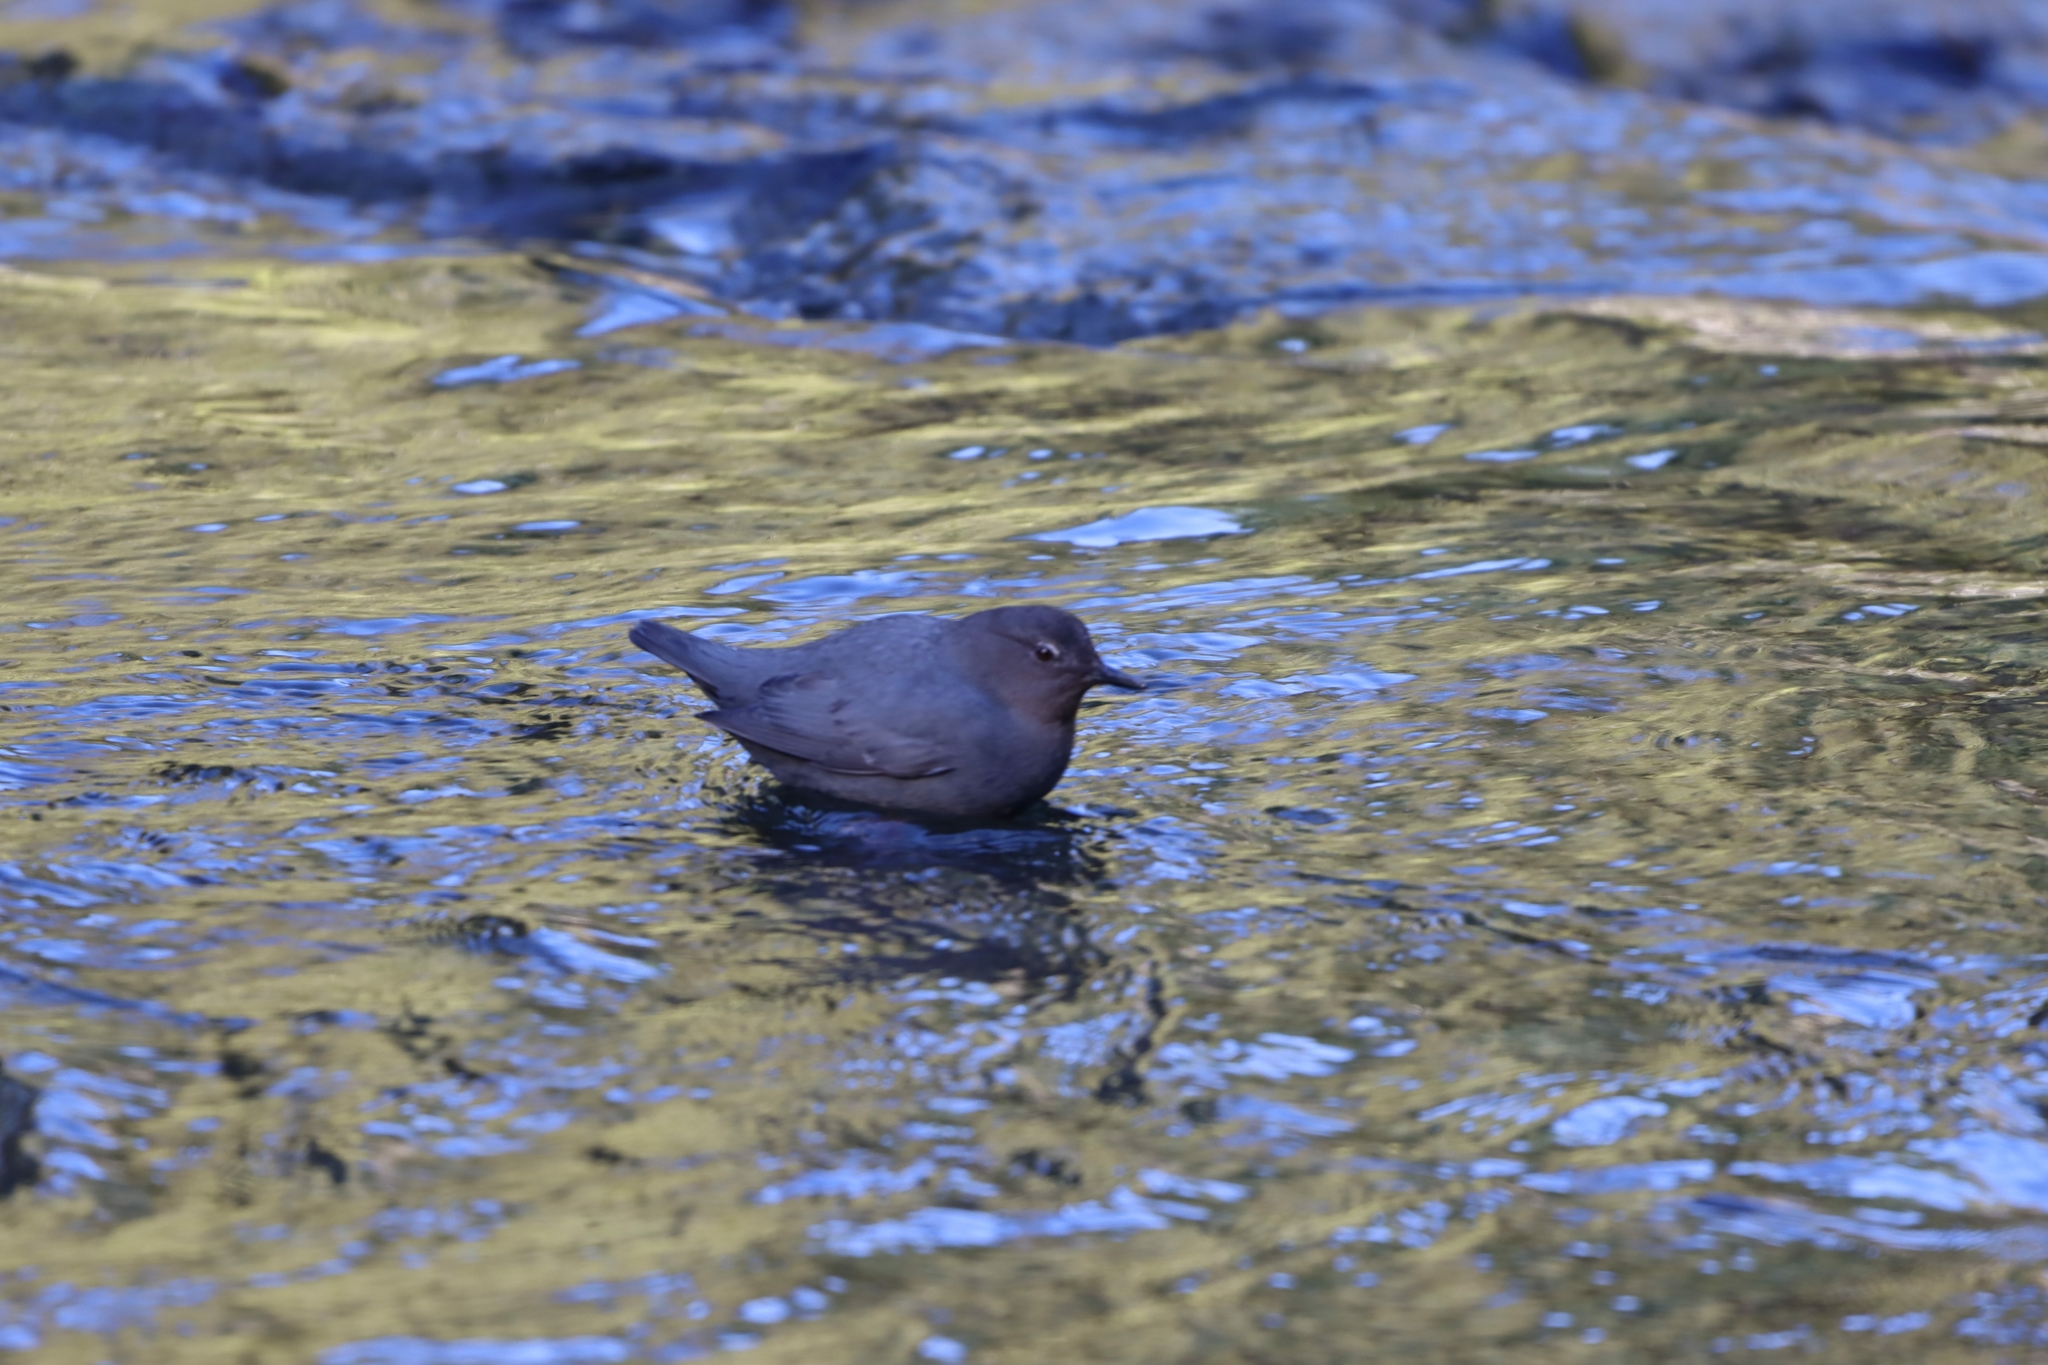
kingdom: Animalia
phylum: Chordata
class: Aves
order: Passeriformes
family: Cinclidae
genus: Cinclus
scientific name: Cinclus mexicanus
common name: American dipper
